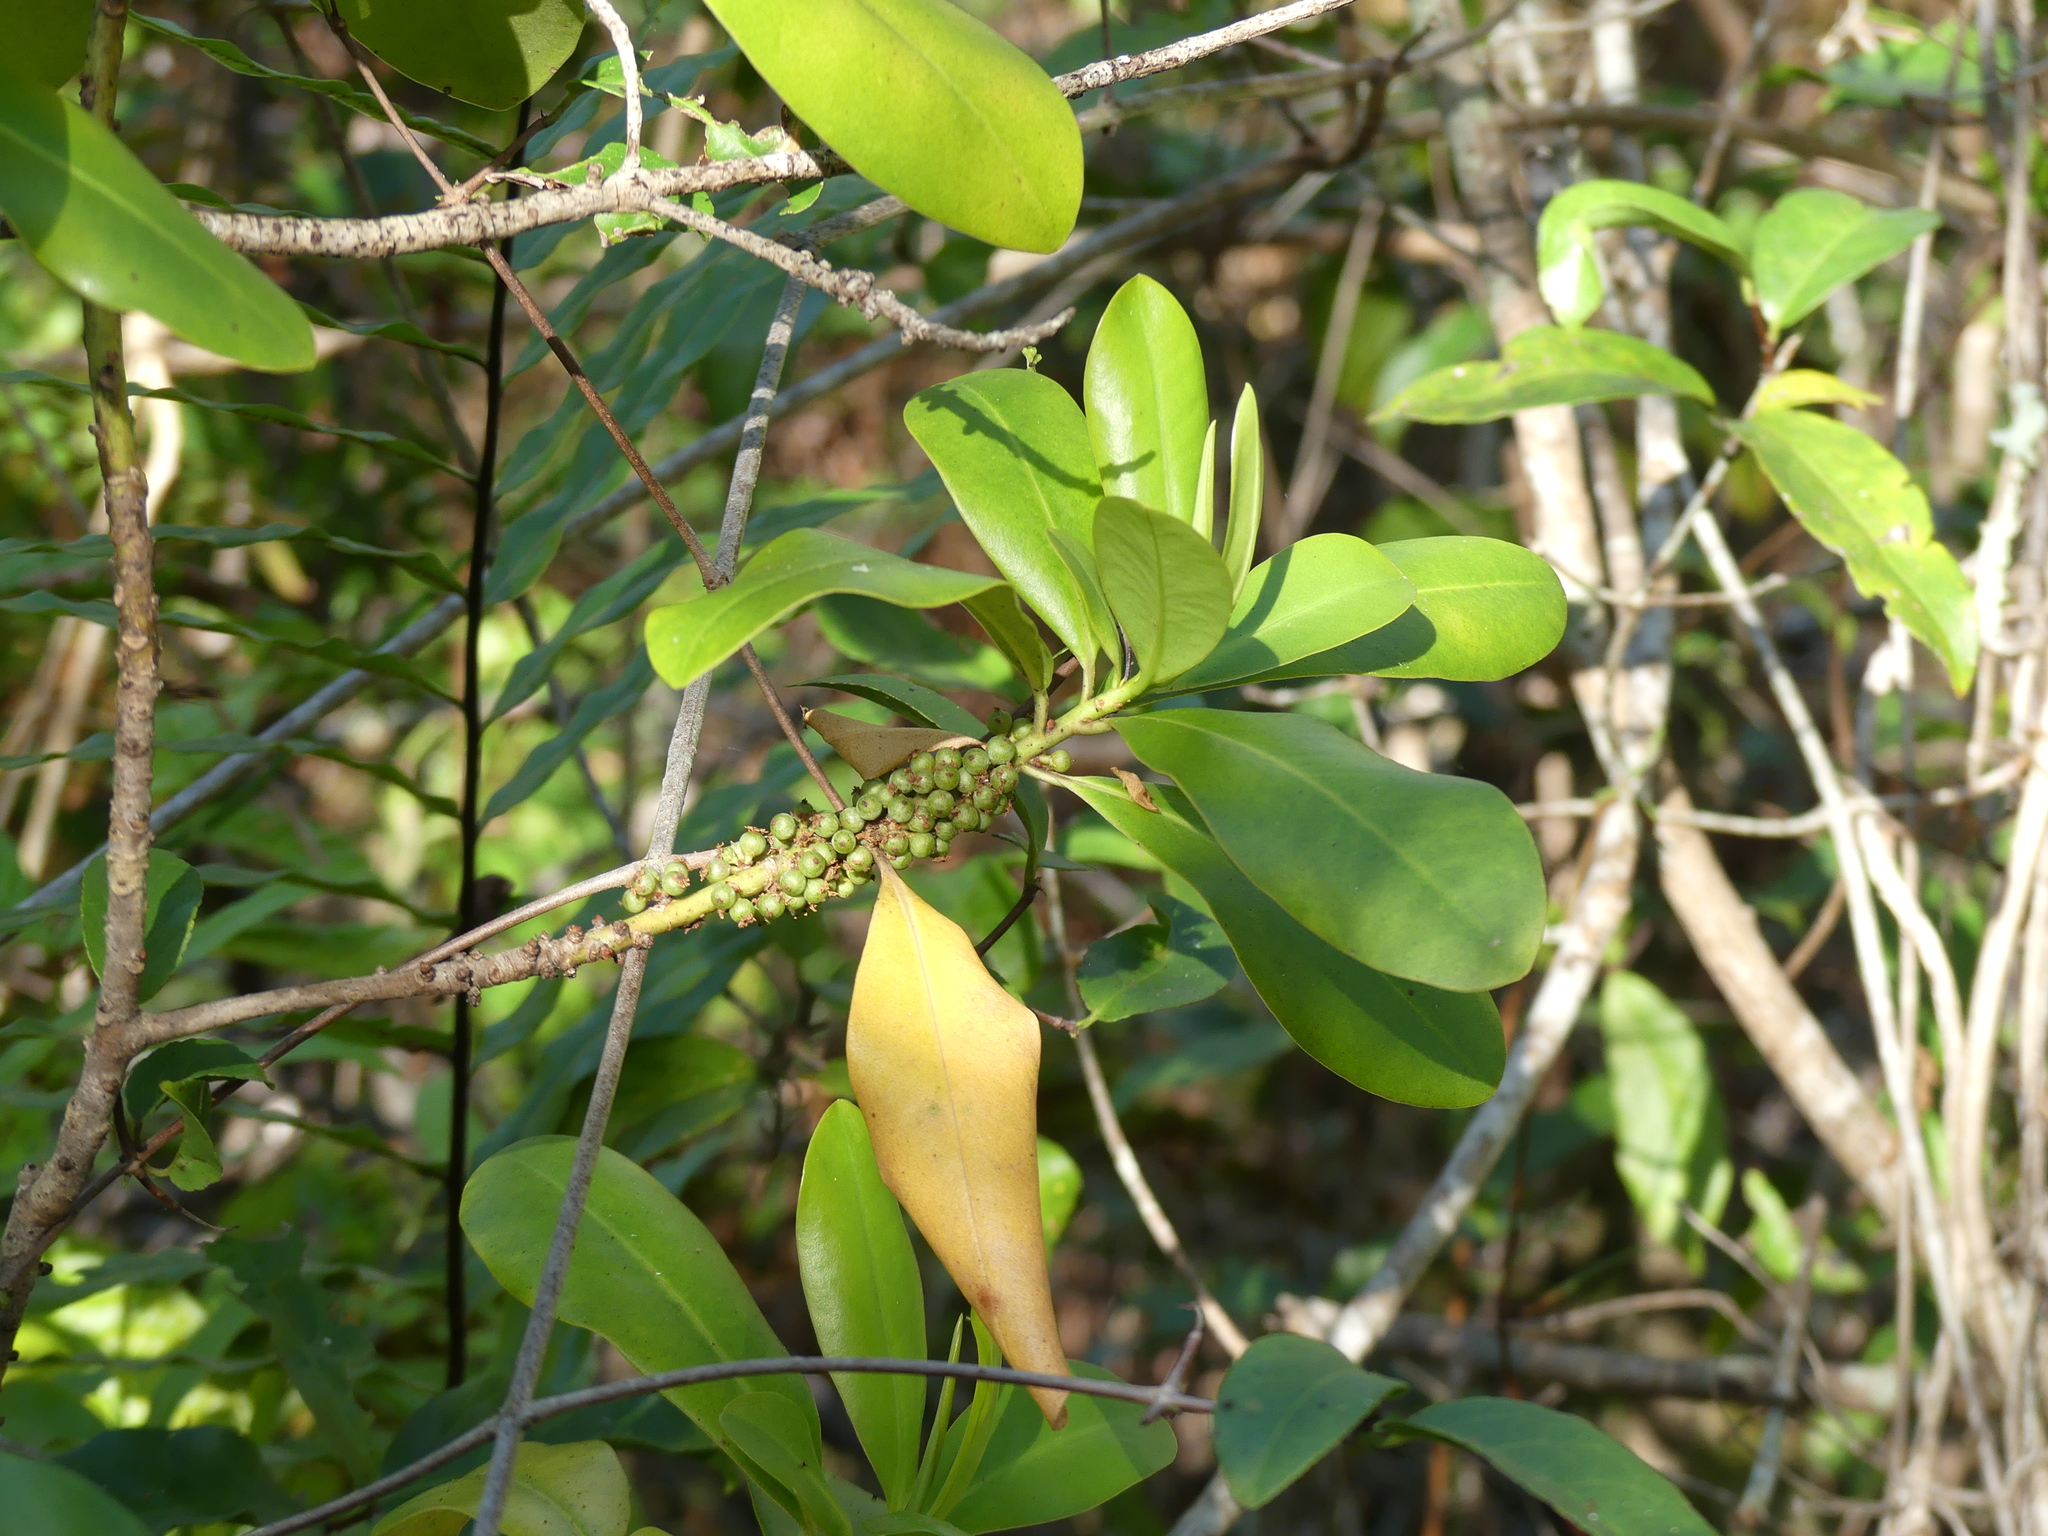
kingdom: Plantae
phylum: Tracheophyta
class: Magnoliopsida
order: Ericales
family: Primulaceae
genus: Myrsine
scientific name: Myrsine floridana
